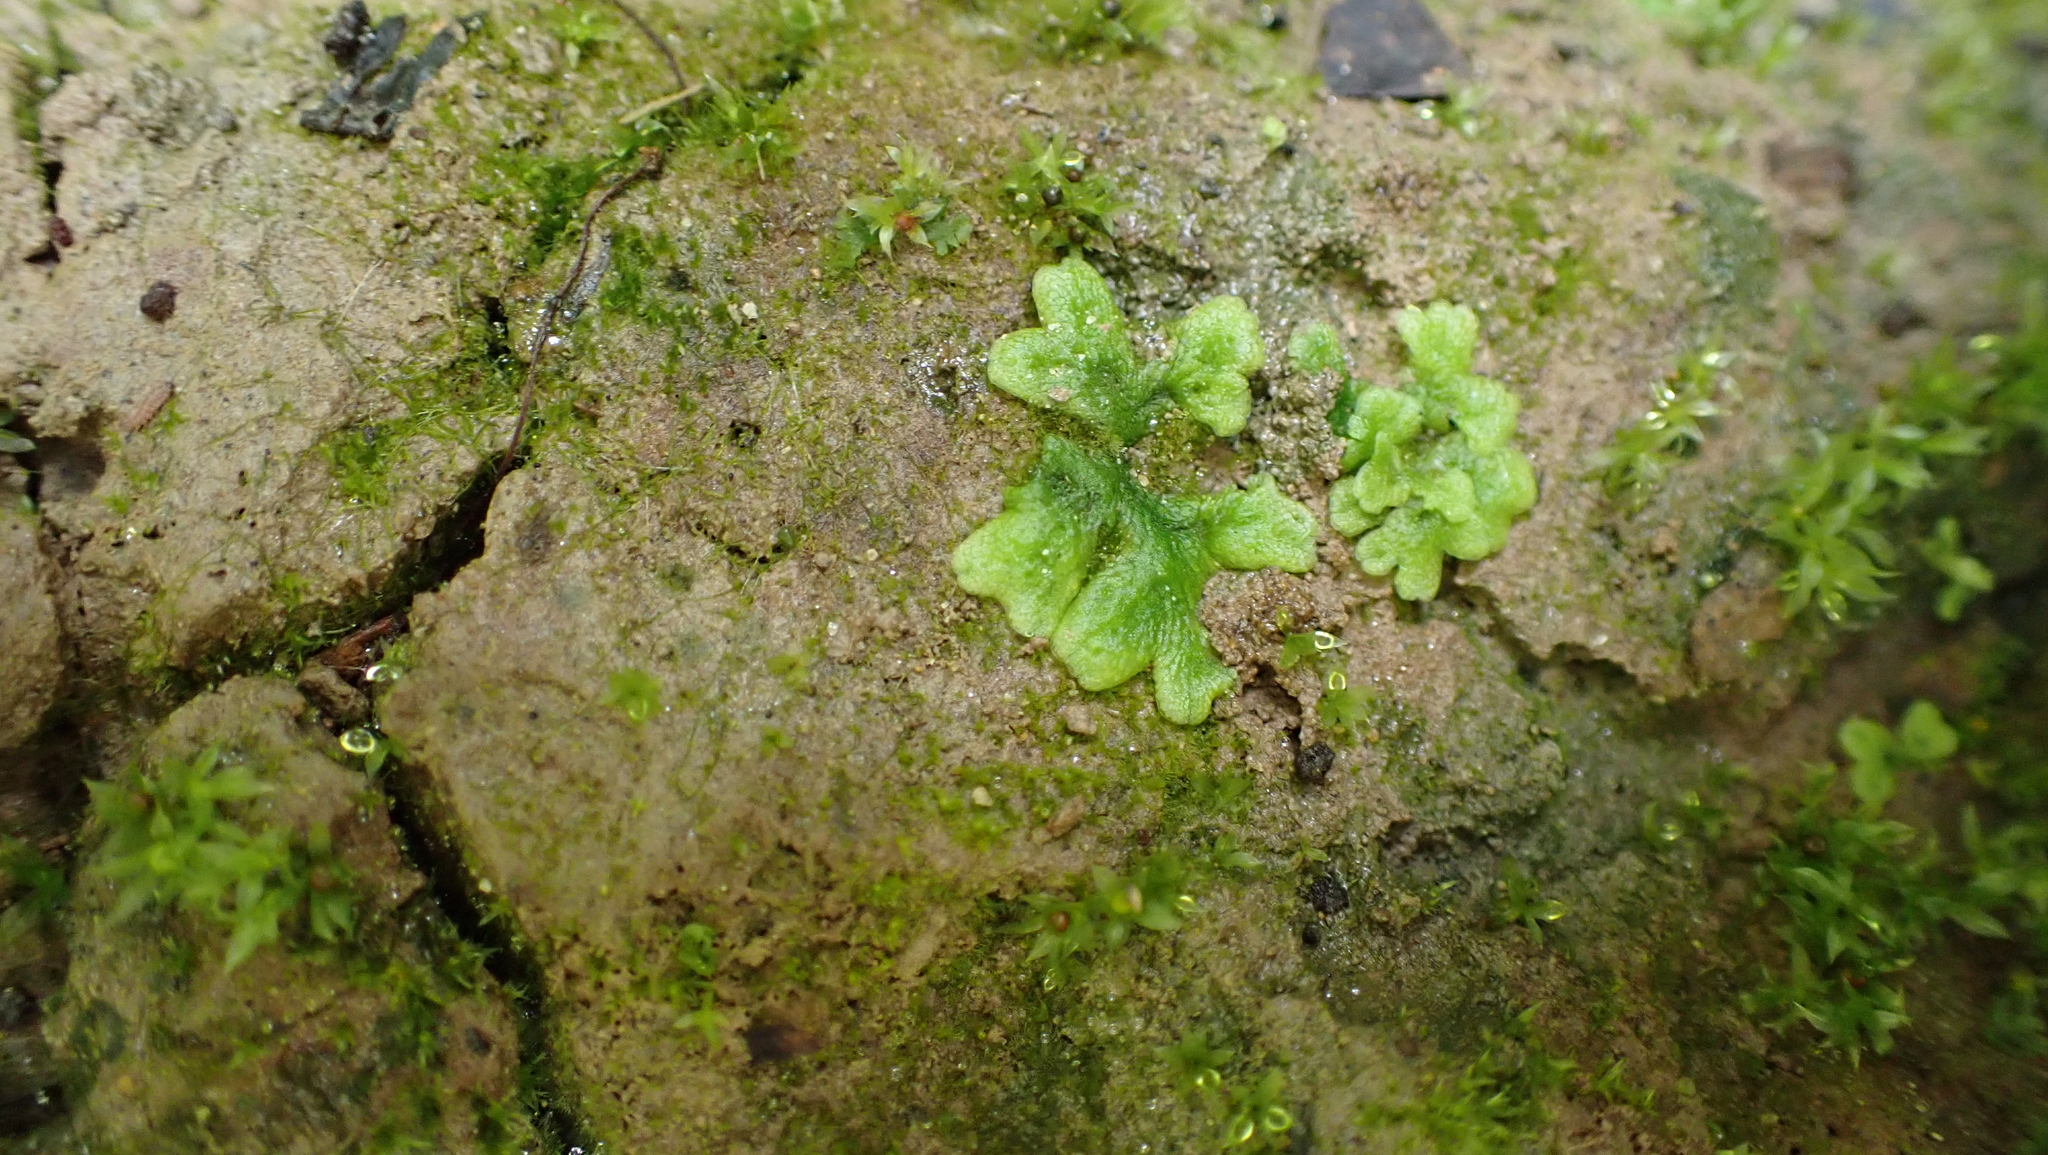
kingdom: Plantae
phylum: Marchantiophyta
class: Marchantiopsida
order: Marchantiales
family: Conocephalaceae
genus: Conocephalum
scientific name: Conocephalum salebrosum
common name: Cat-tongue liverwort
